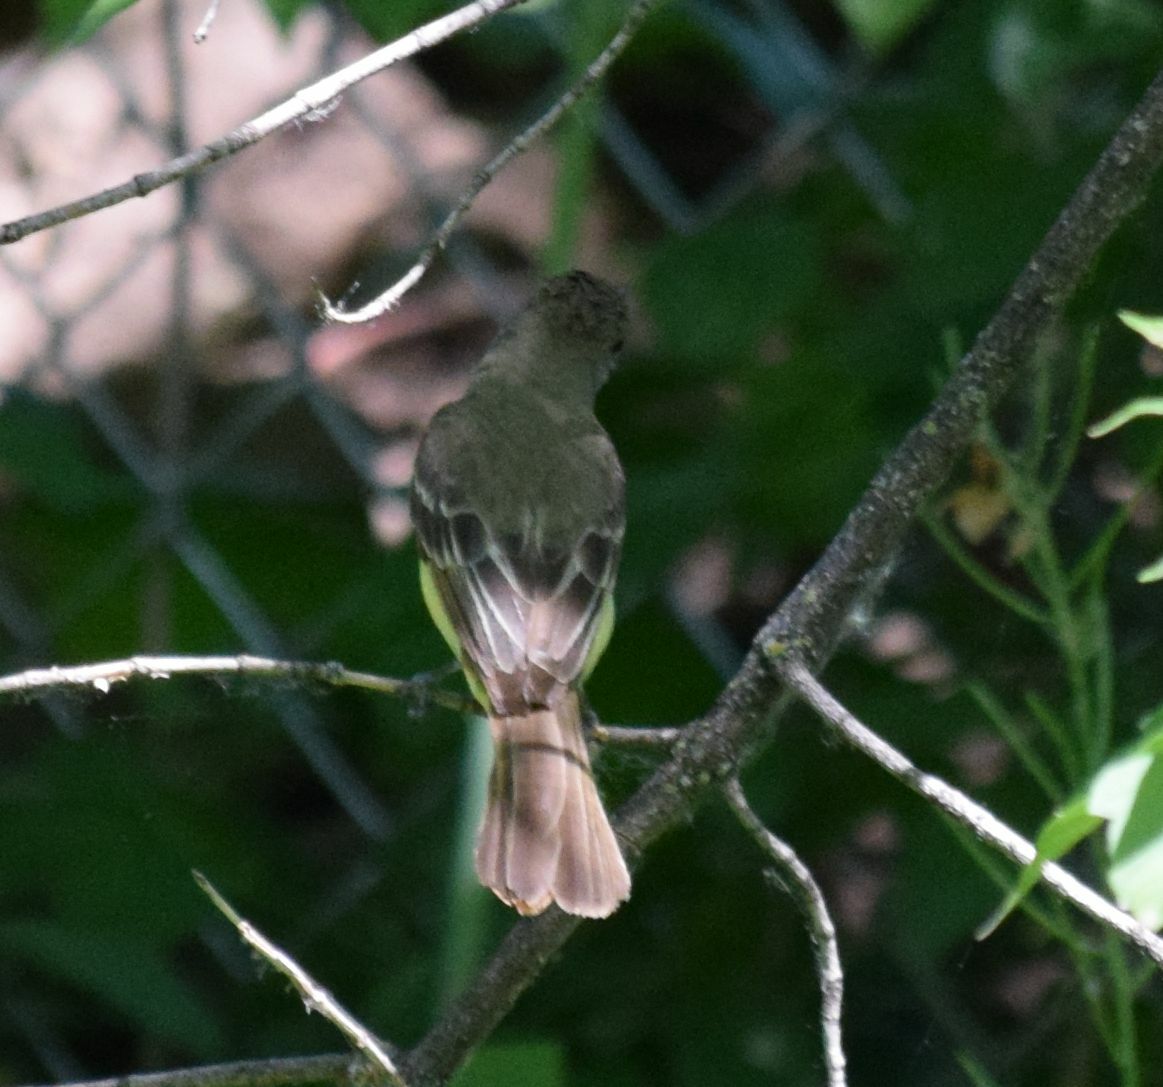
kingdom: Animalia
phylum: Chordata
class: Aves
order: Passeriformes
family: Tyrannidae
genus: Myiarchus
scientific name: Myiarchus crinitus
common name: Great crested flycatcher
